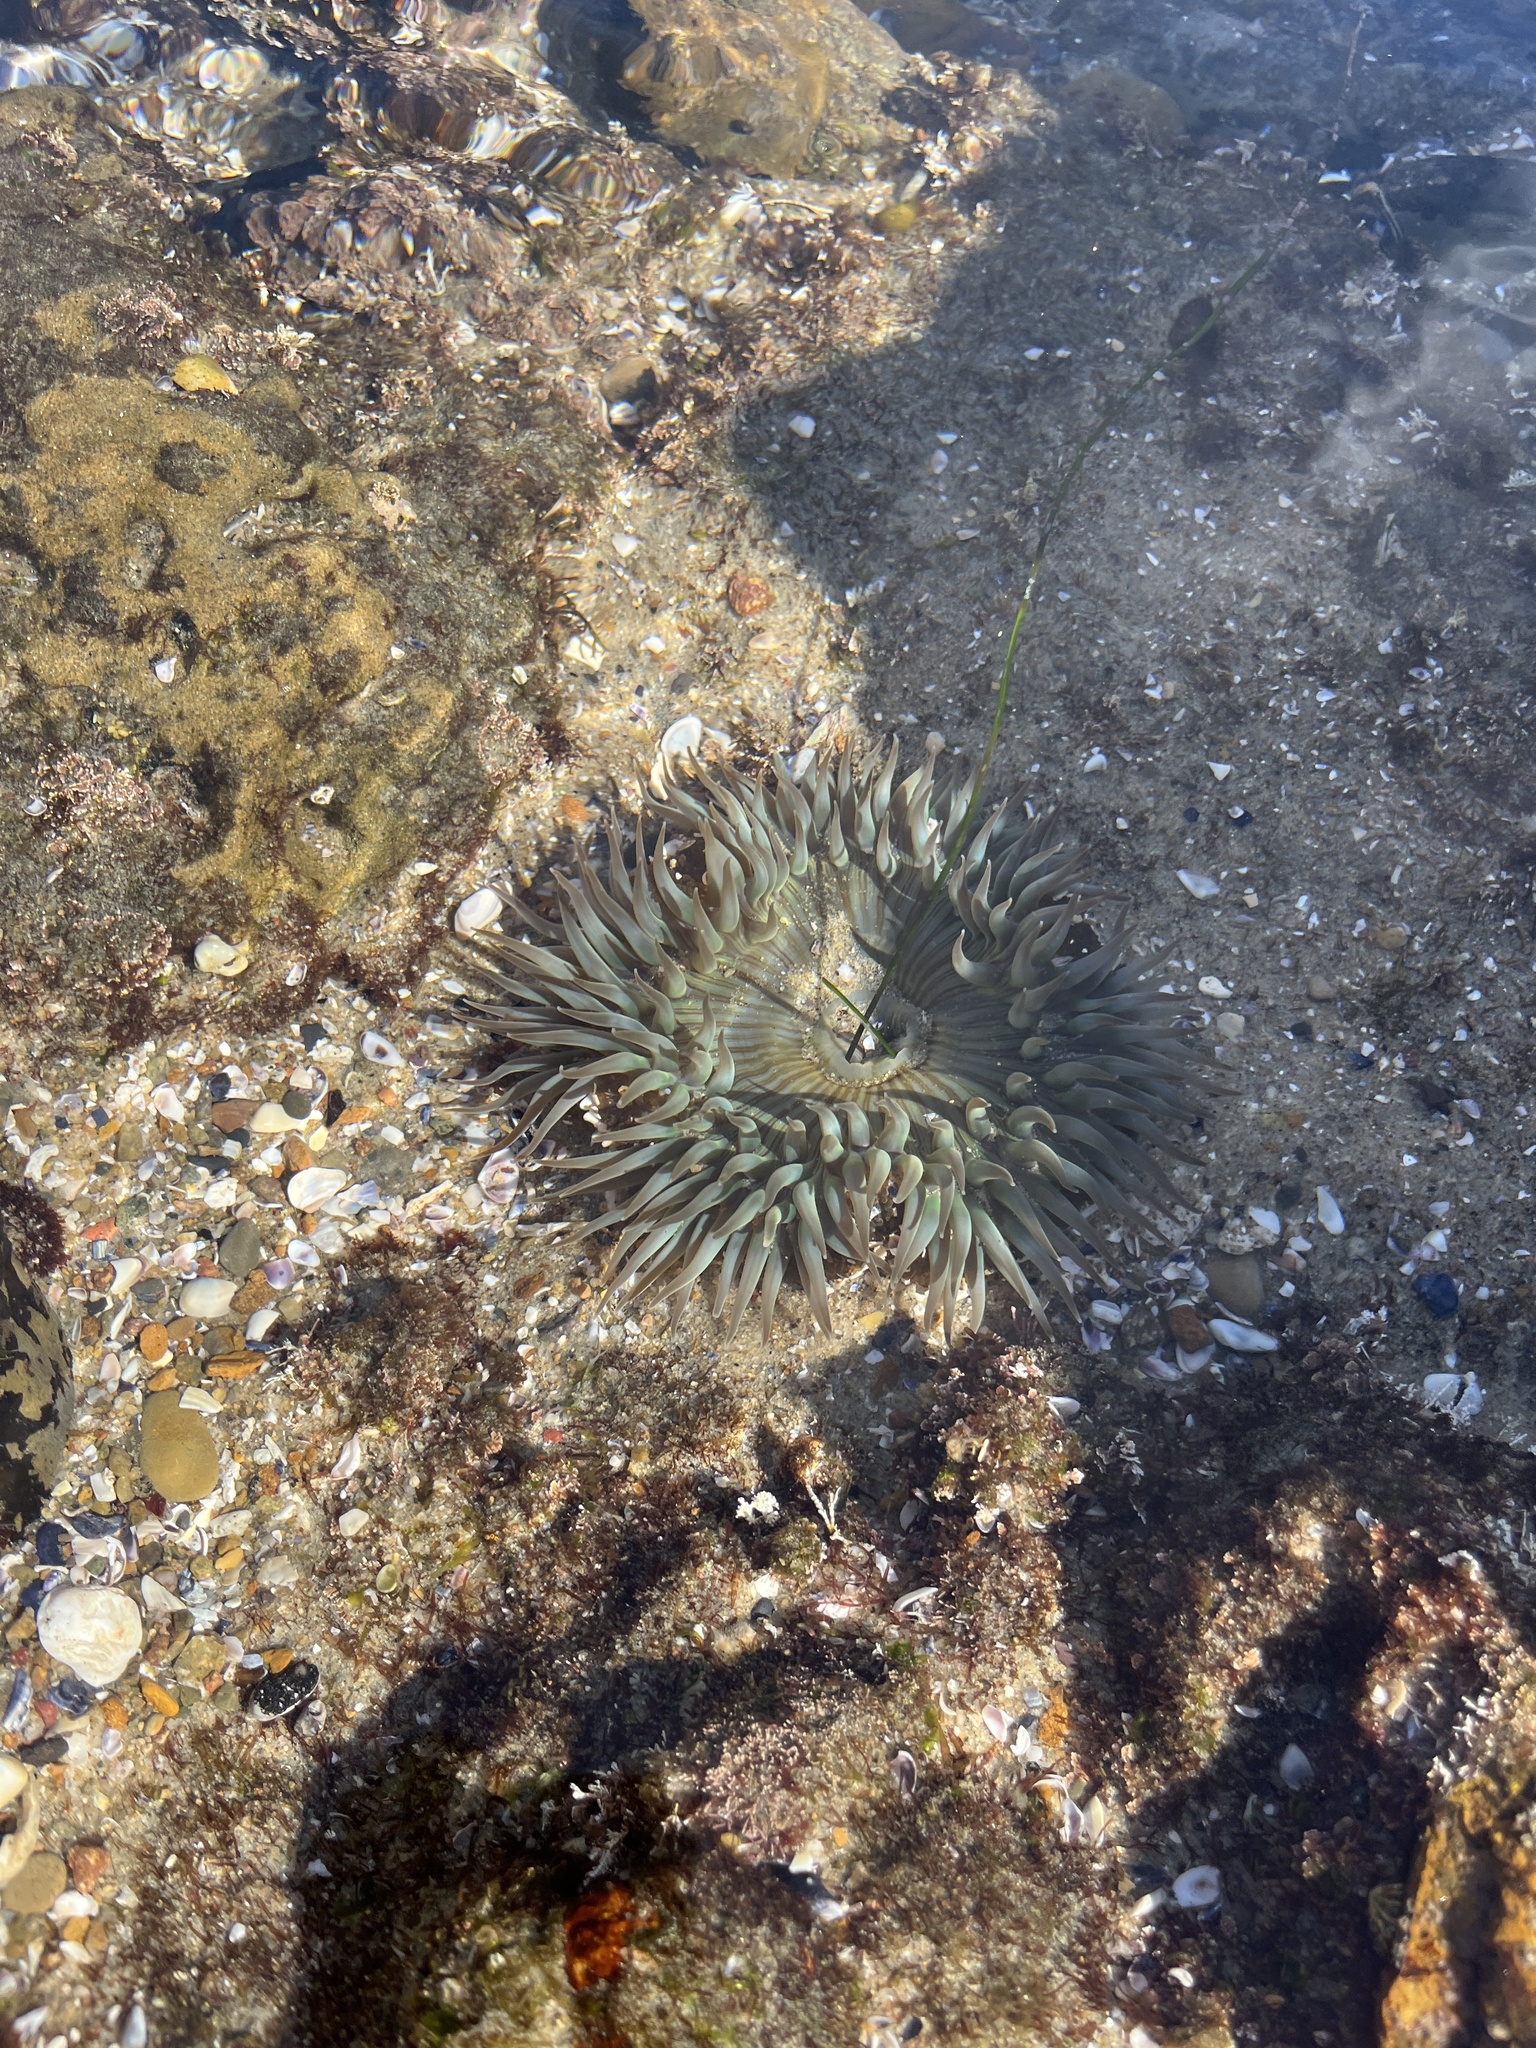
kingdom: Animalia
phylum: Cnidaria
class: Anthozoa
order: Actiniaria
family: Actiniidae
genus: Anthopleura
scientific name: Anthopleura sola
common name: Sun anemone
